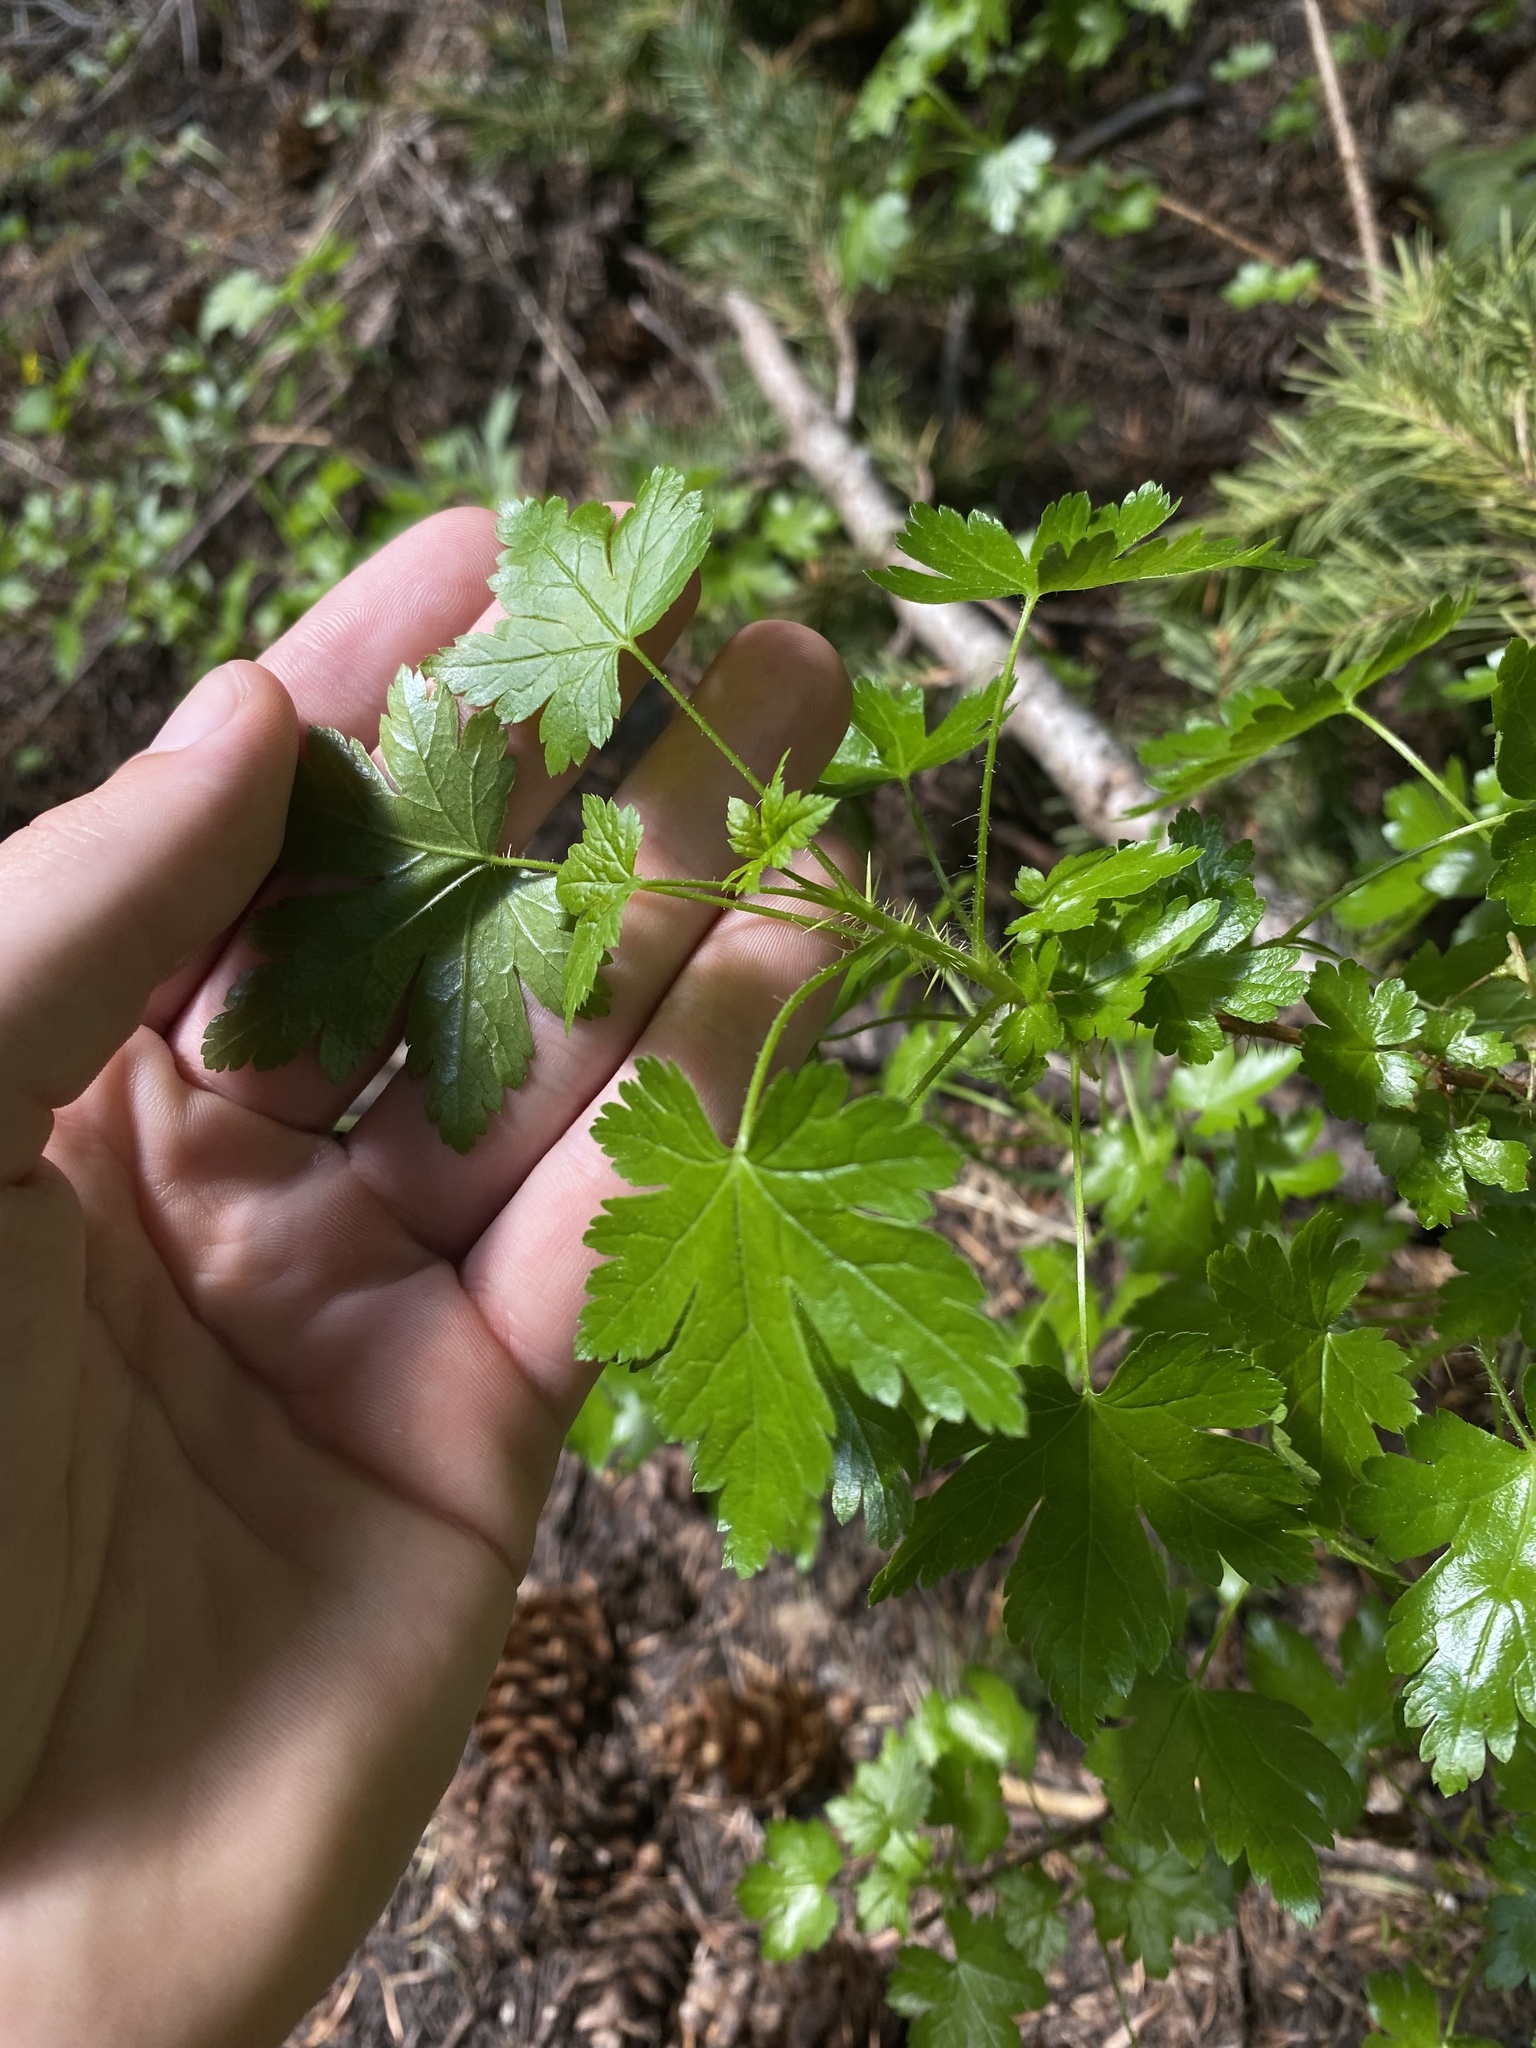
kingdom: Plantae
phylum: Tracheophyta
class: Magnoliopsida
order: Saxifragales
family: Grossulariaceae
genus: Ribes
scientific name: Ribes lacustre
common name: Black gooseberry
